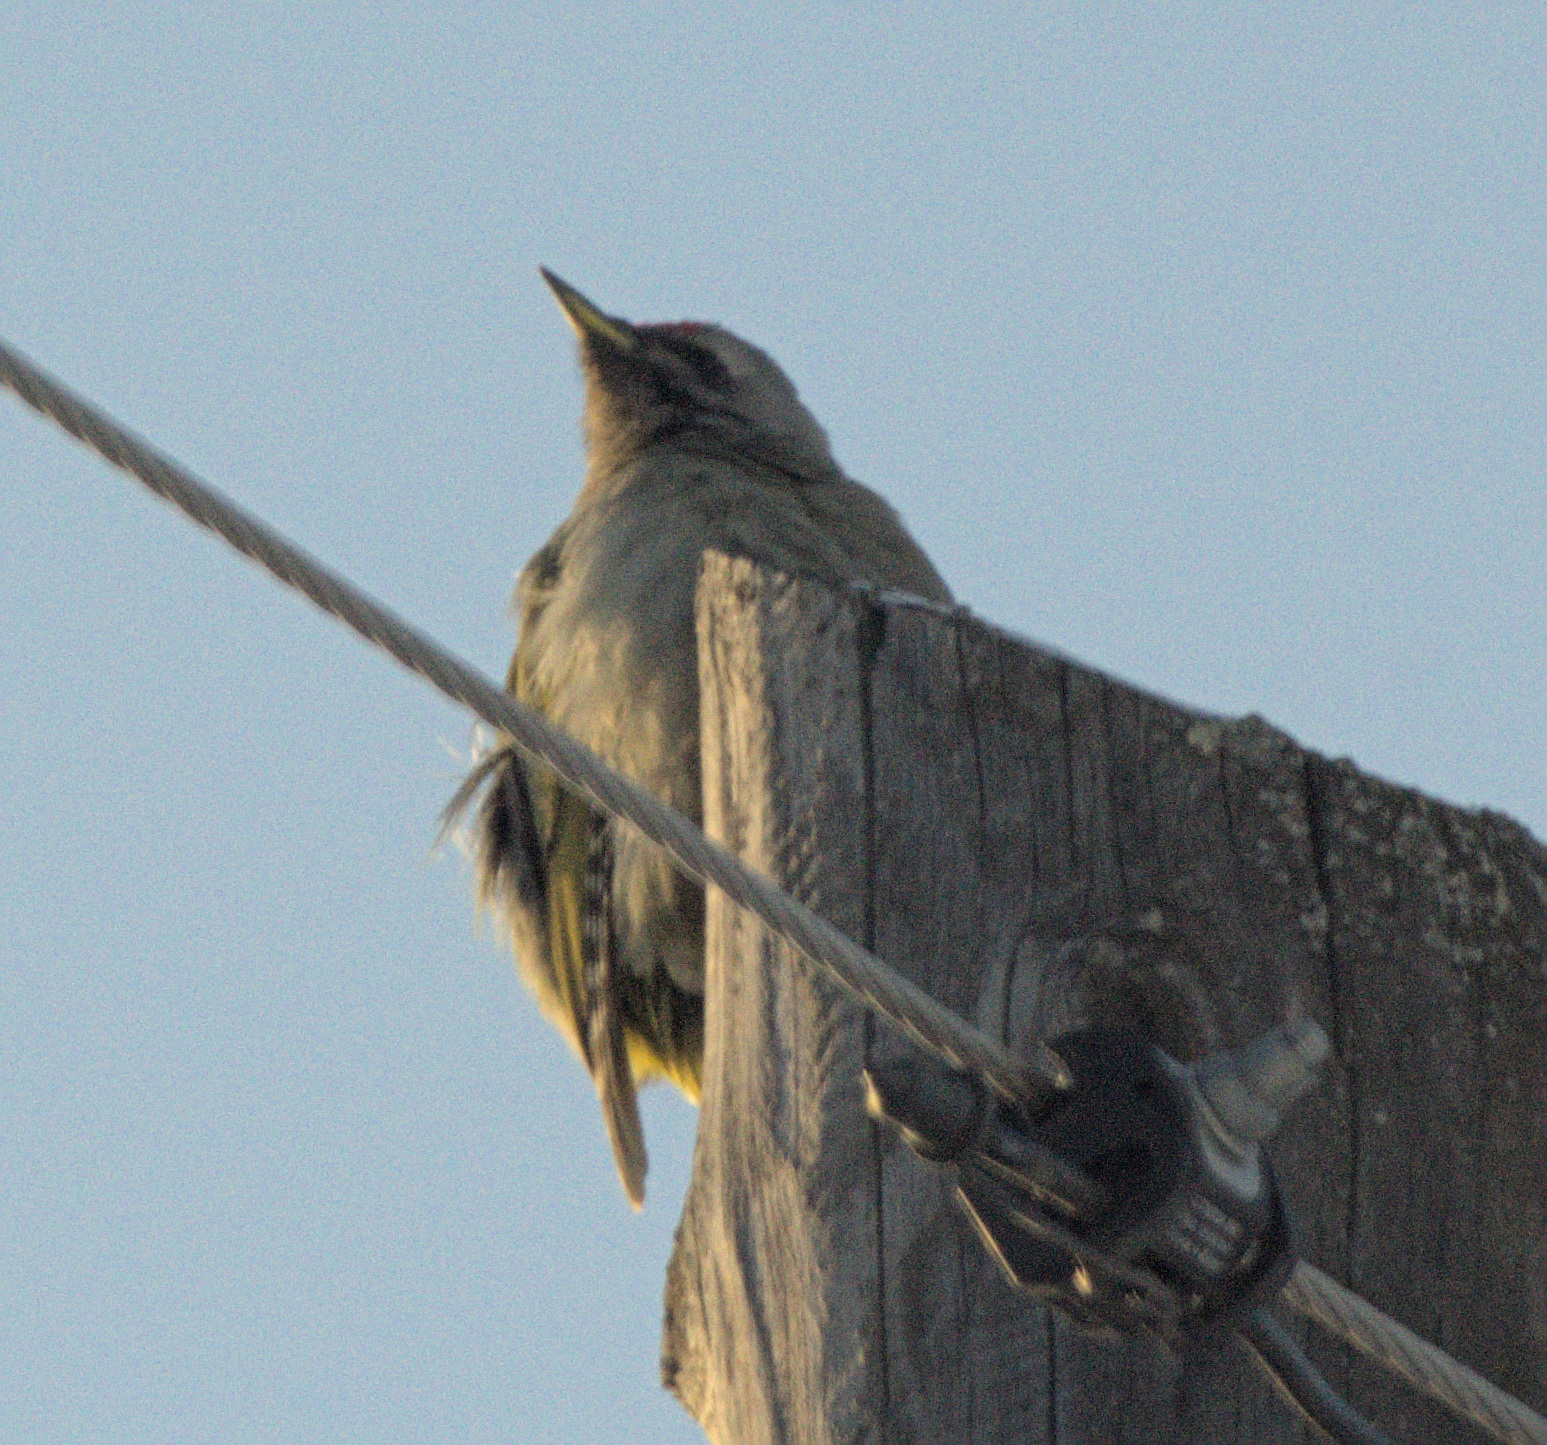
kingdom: Animalia
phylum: Chordata
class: Aves
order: Piciformes
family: Picidae
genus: Picus
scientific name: Picus canus
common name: Grey-headed woodpecker
